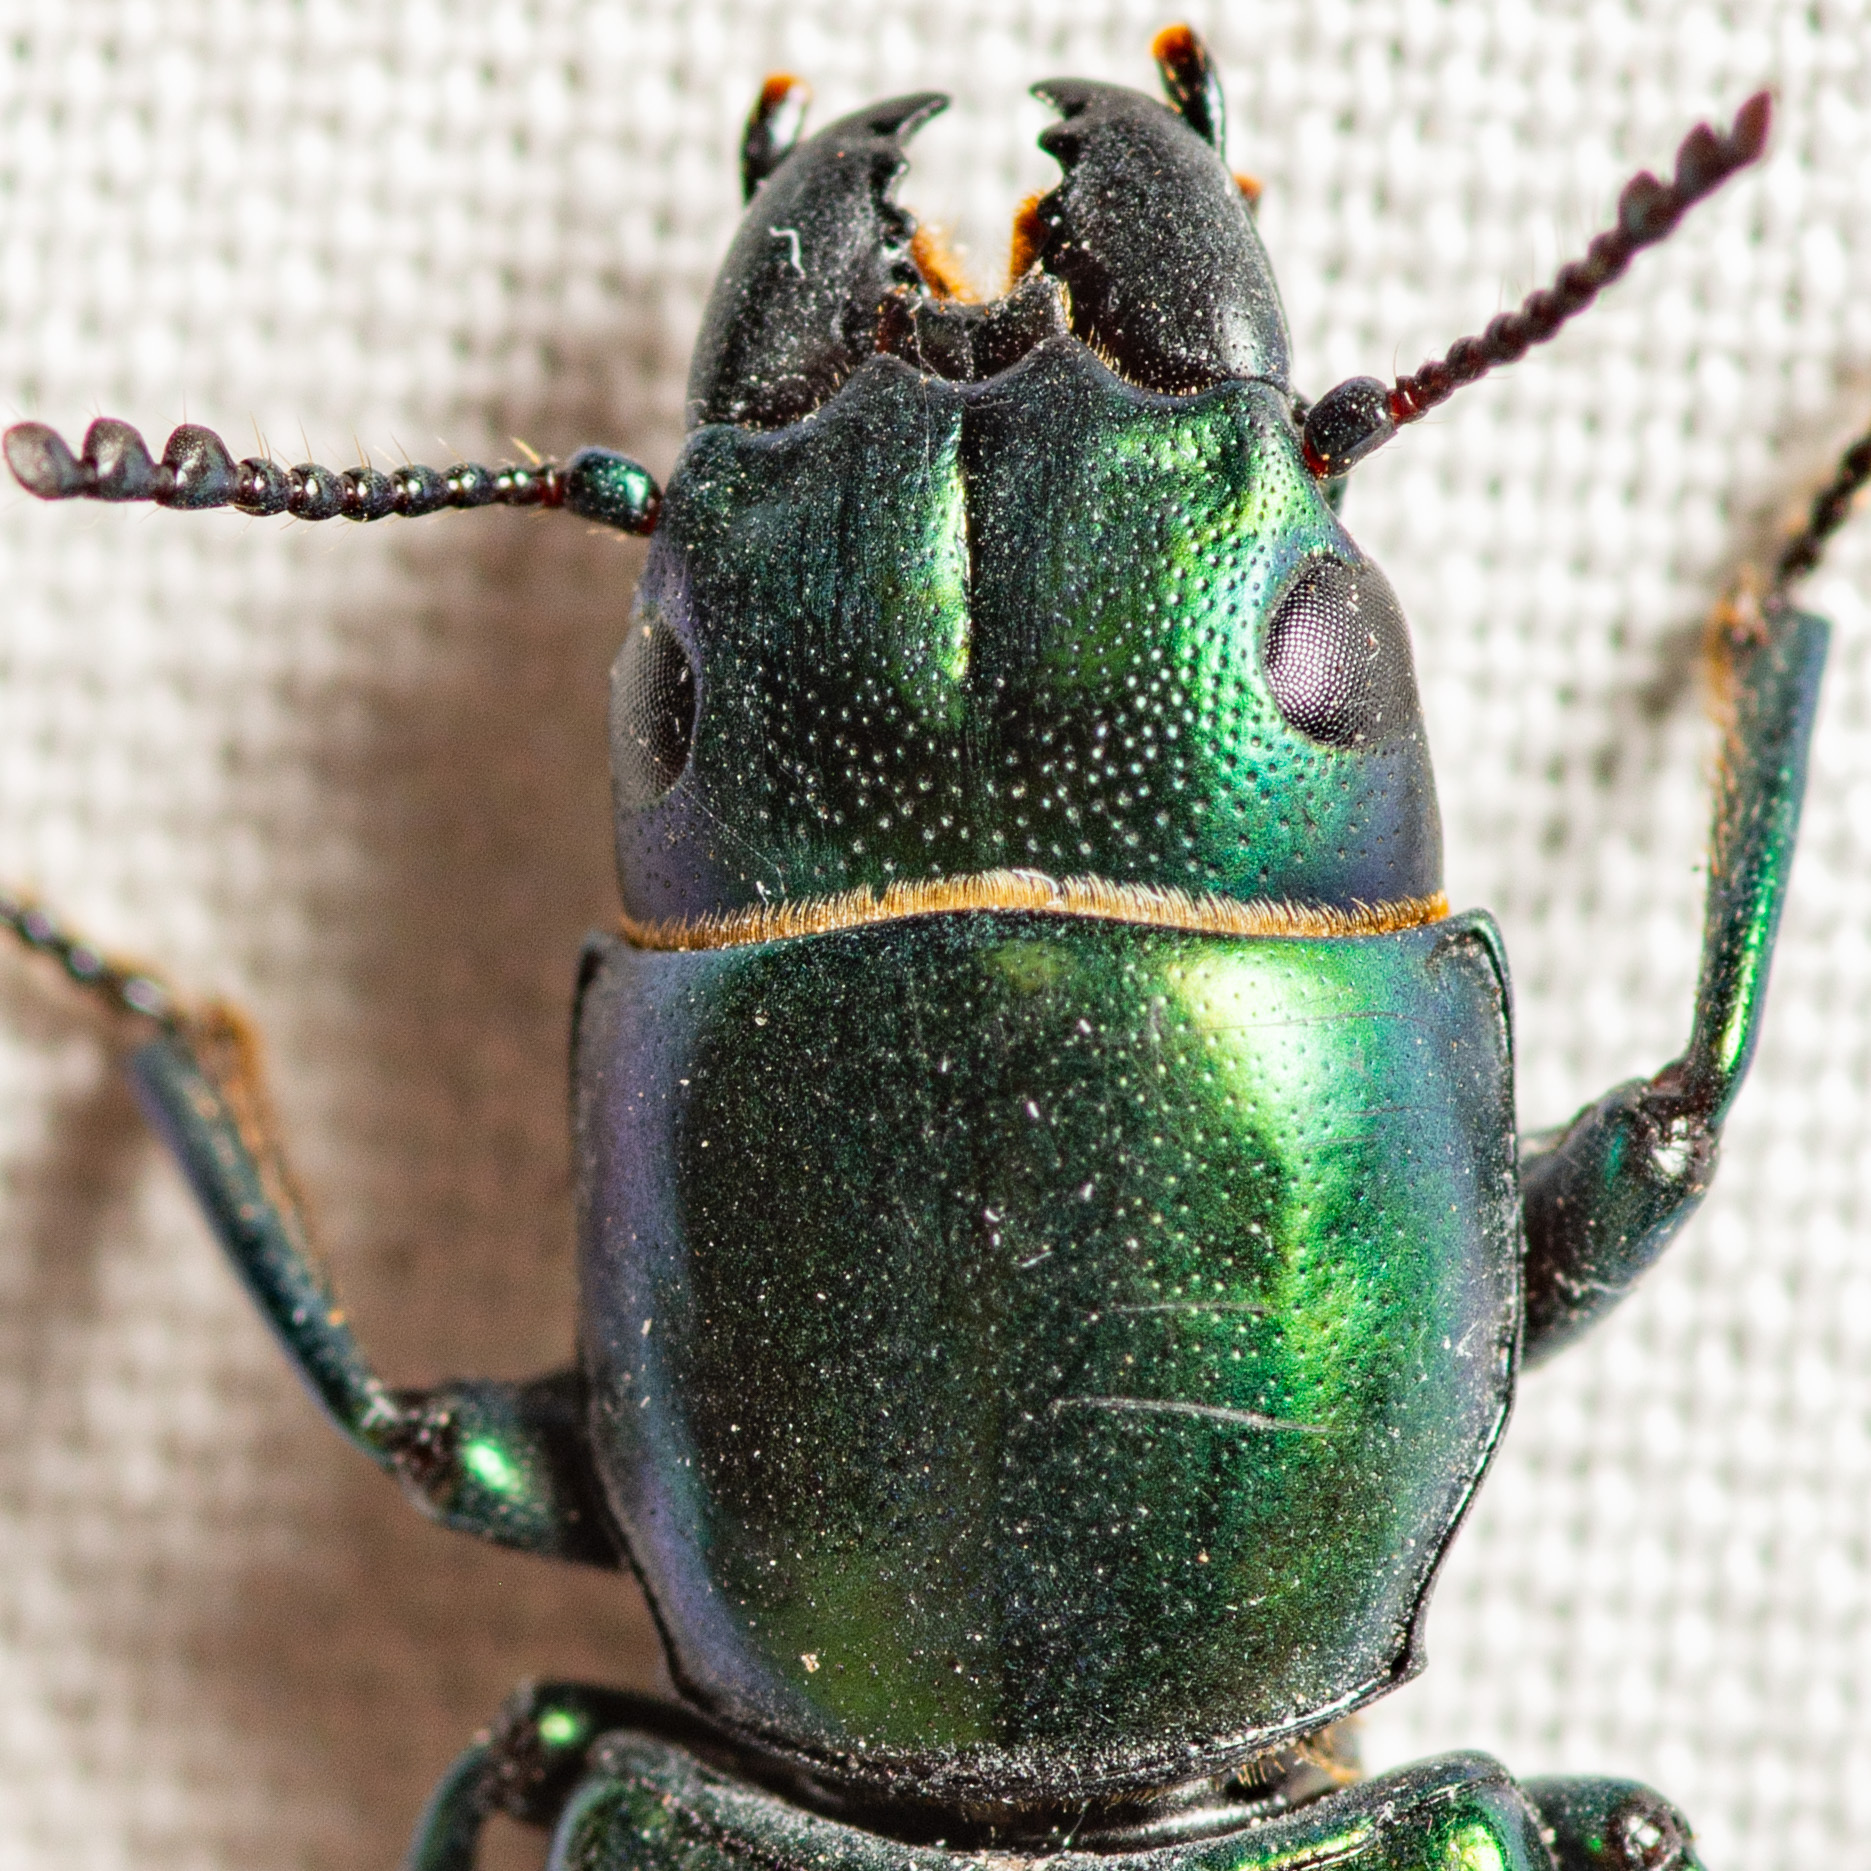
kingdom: Animalia
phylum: Arthropoda
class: Insecta
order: Coleoptera
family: Trogossitidae
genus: Temnoscheila
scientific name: Temnoscheila
